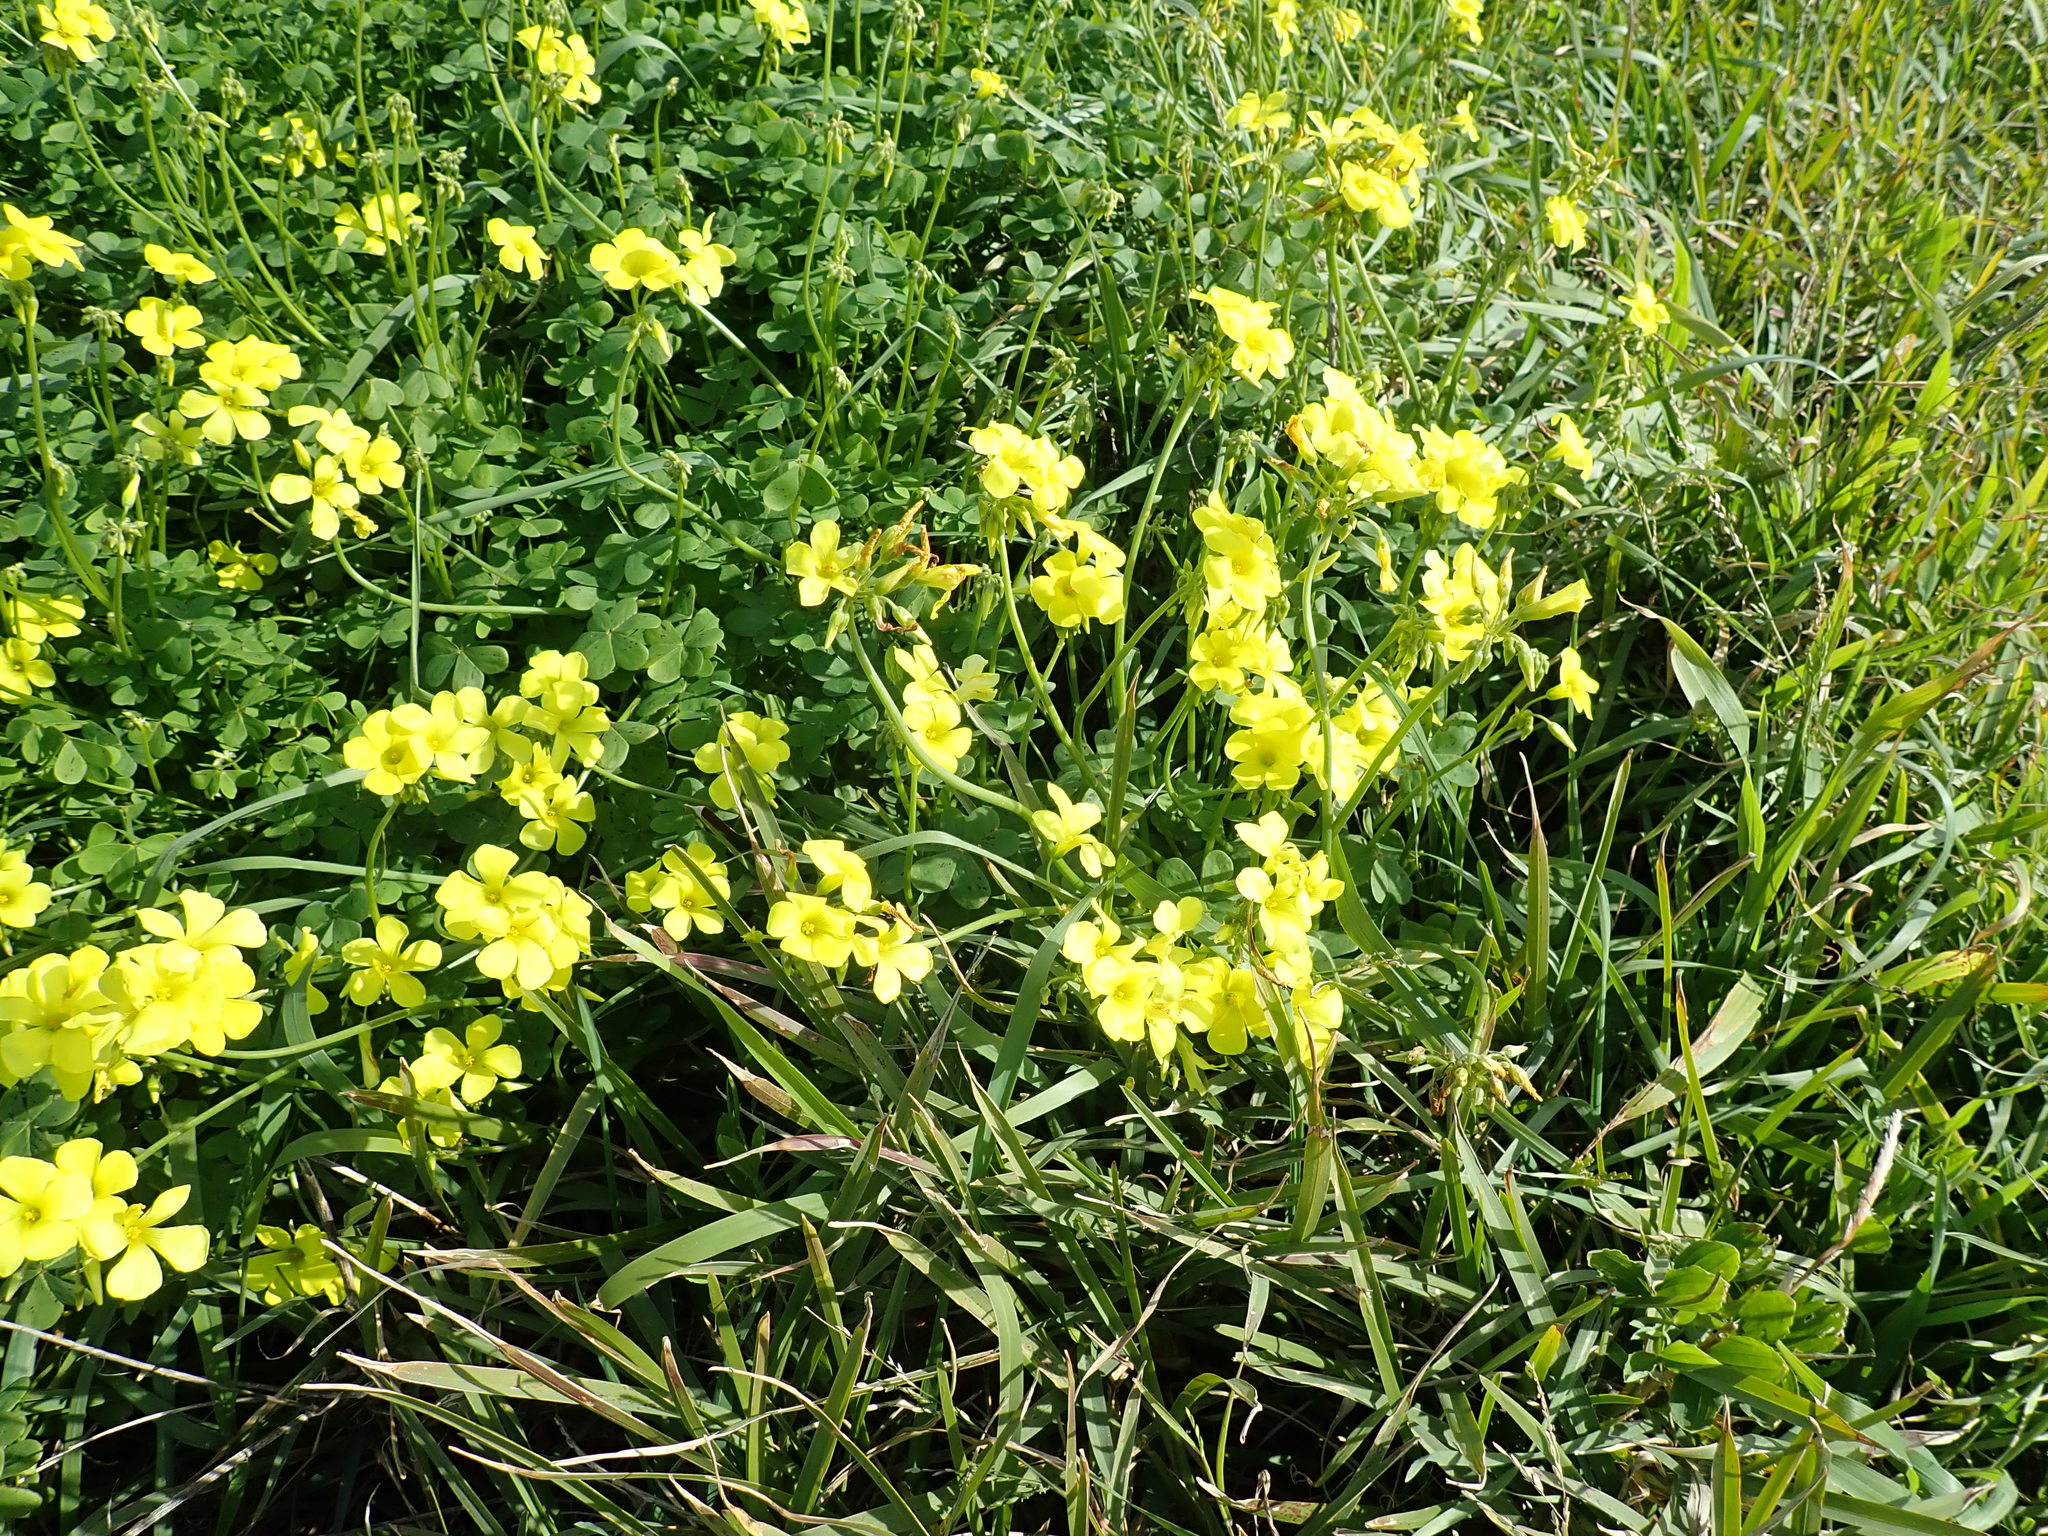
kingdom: Plantae
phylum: Tracheophyta
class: Magnoliopsida
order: Oxalidales
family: Oxalidaceae
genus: Oxalis
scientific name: Oxalis pes-caprae
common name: Bermuda-buttercup
